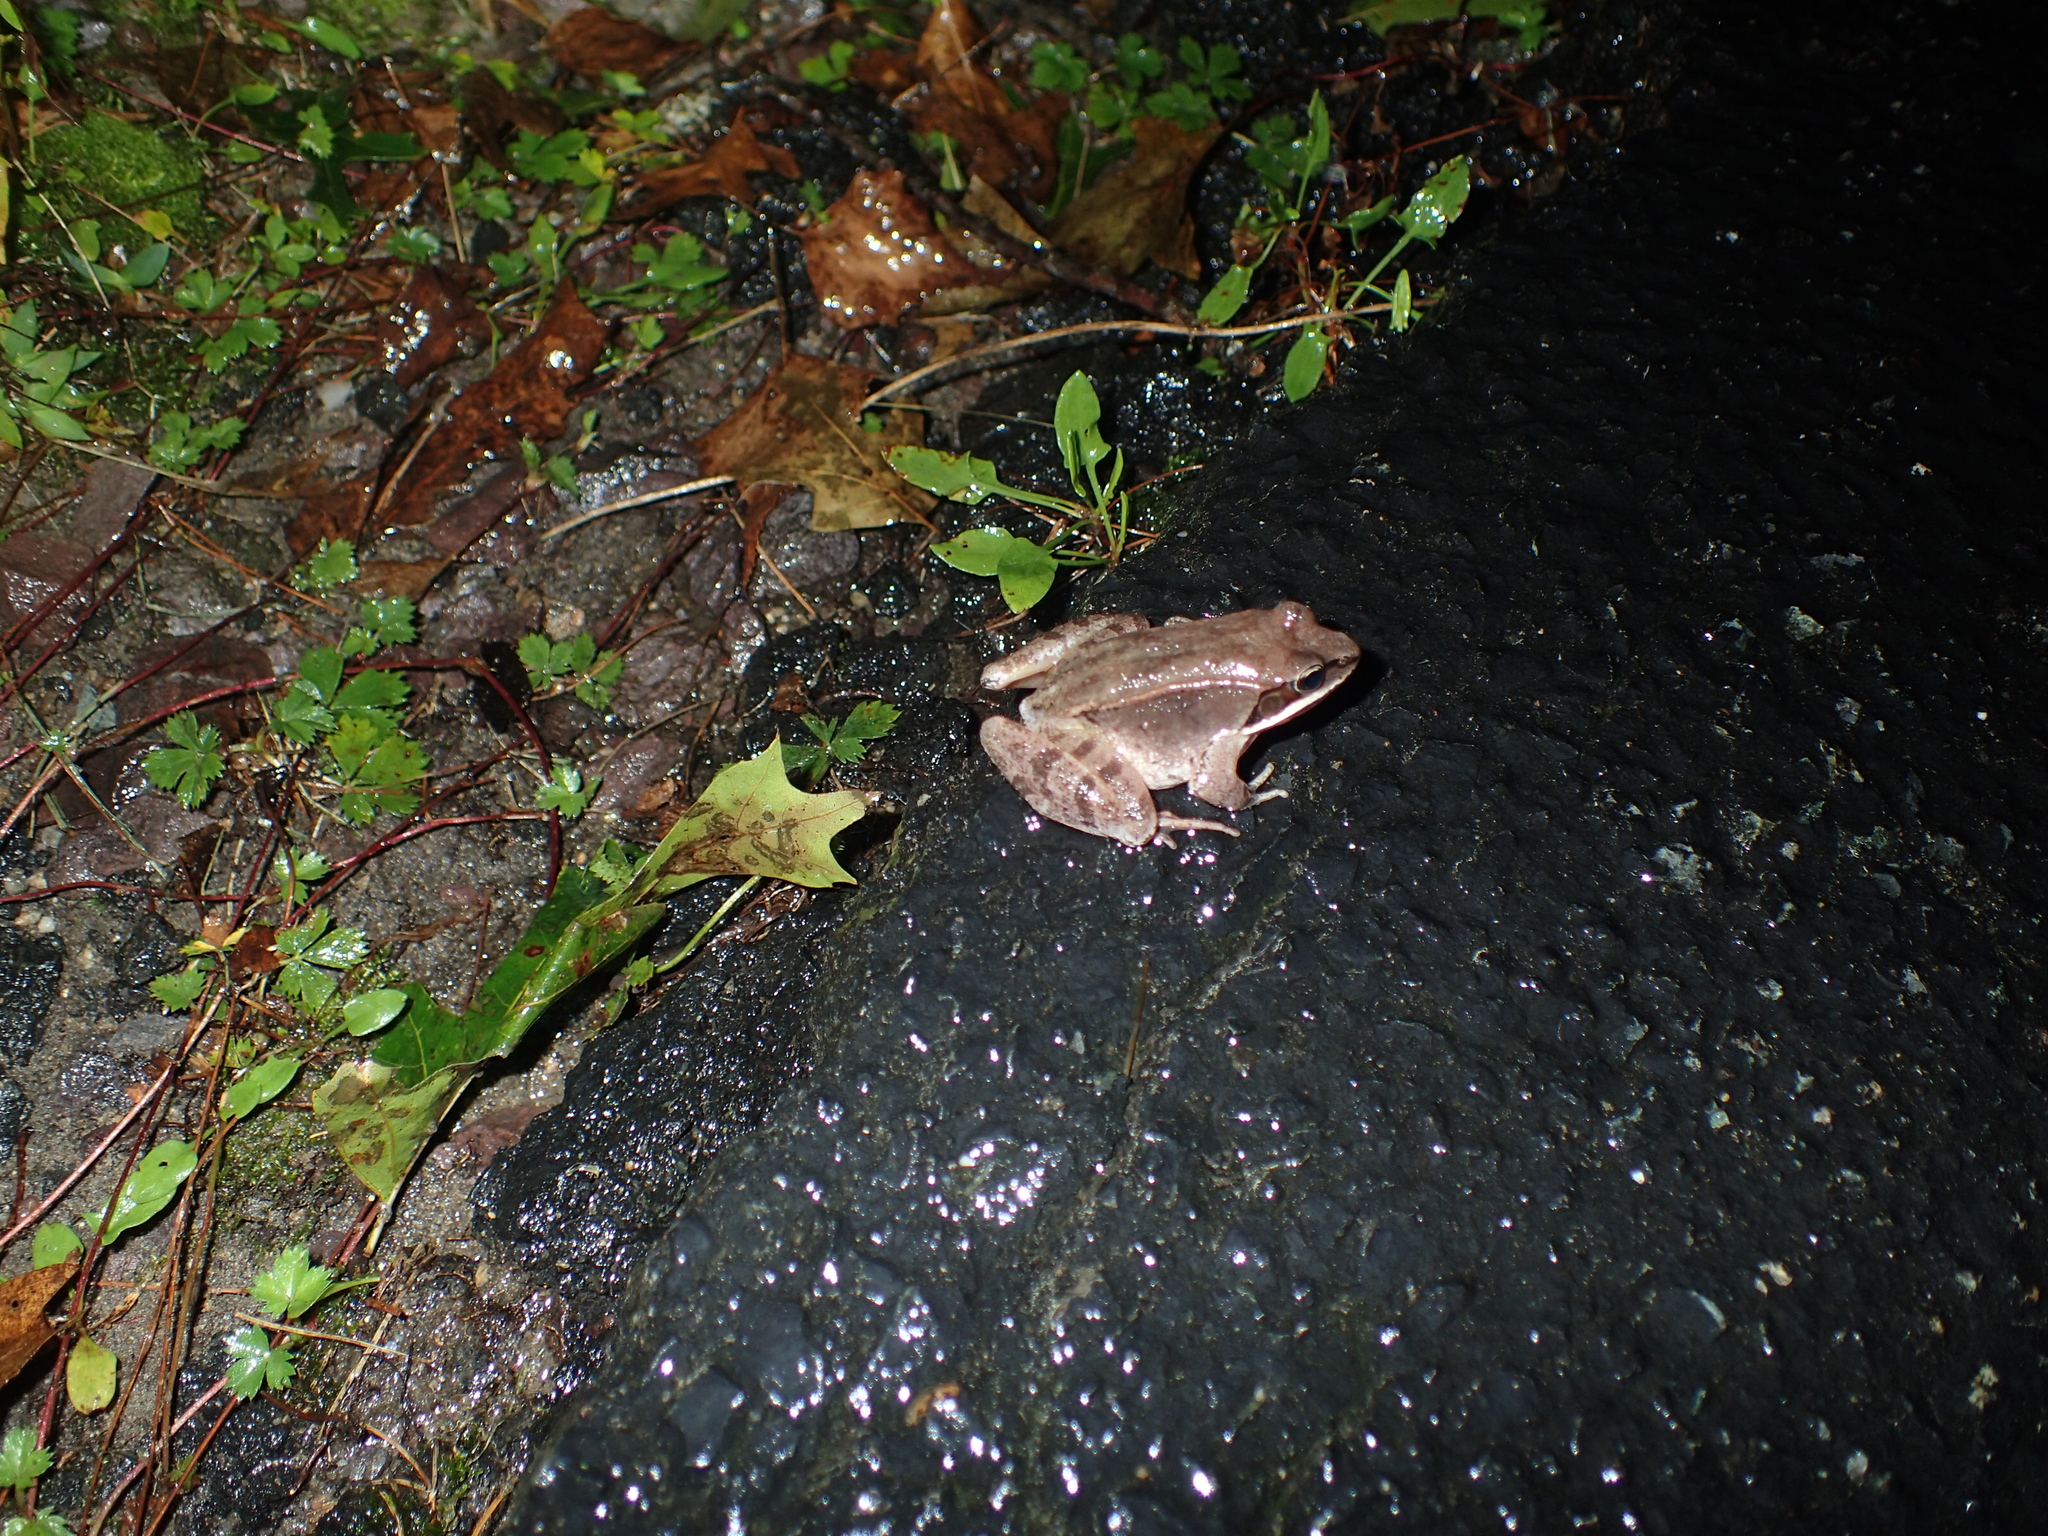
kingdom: Animalia
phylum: Chordata
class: Amphibia
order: Anura
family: Ranidae
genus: Lithobates
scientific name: Lithobates sylvaticus
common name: Wood frog
